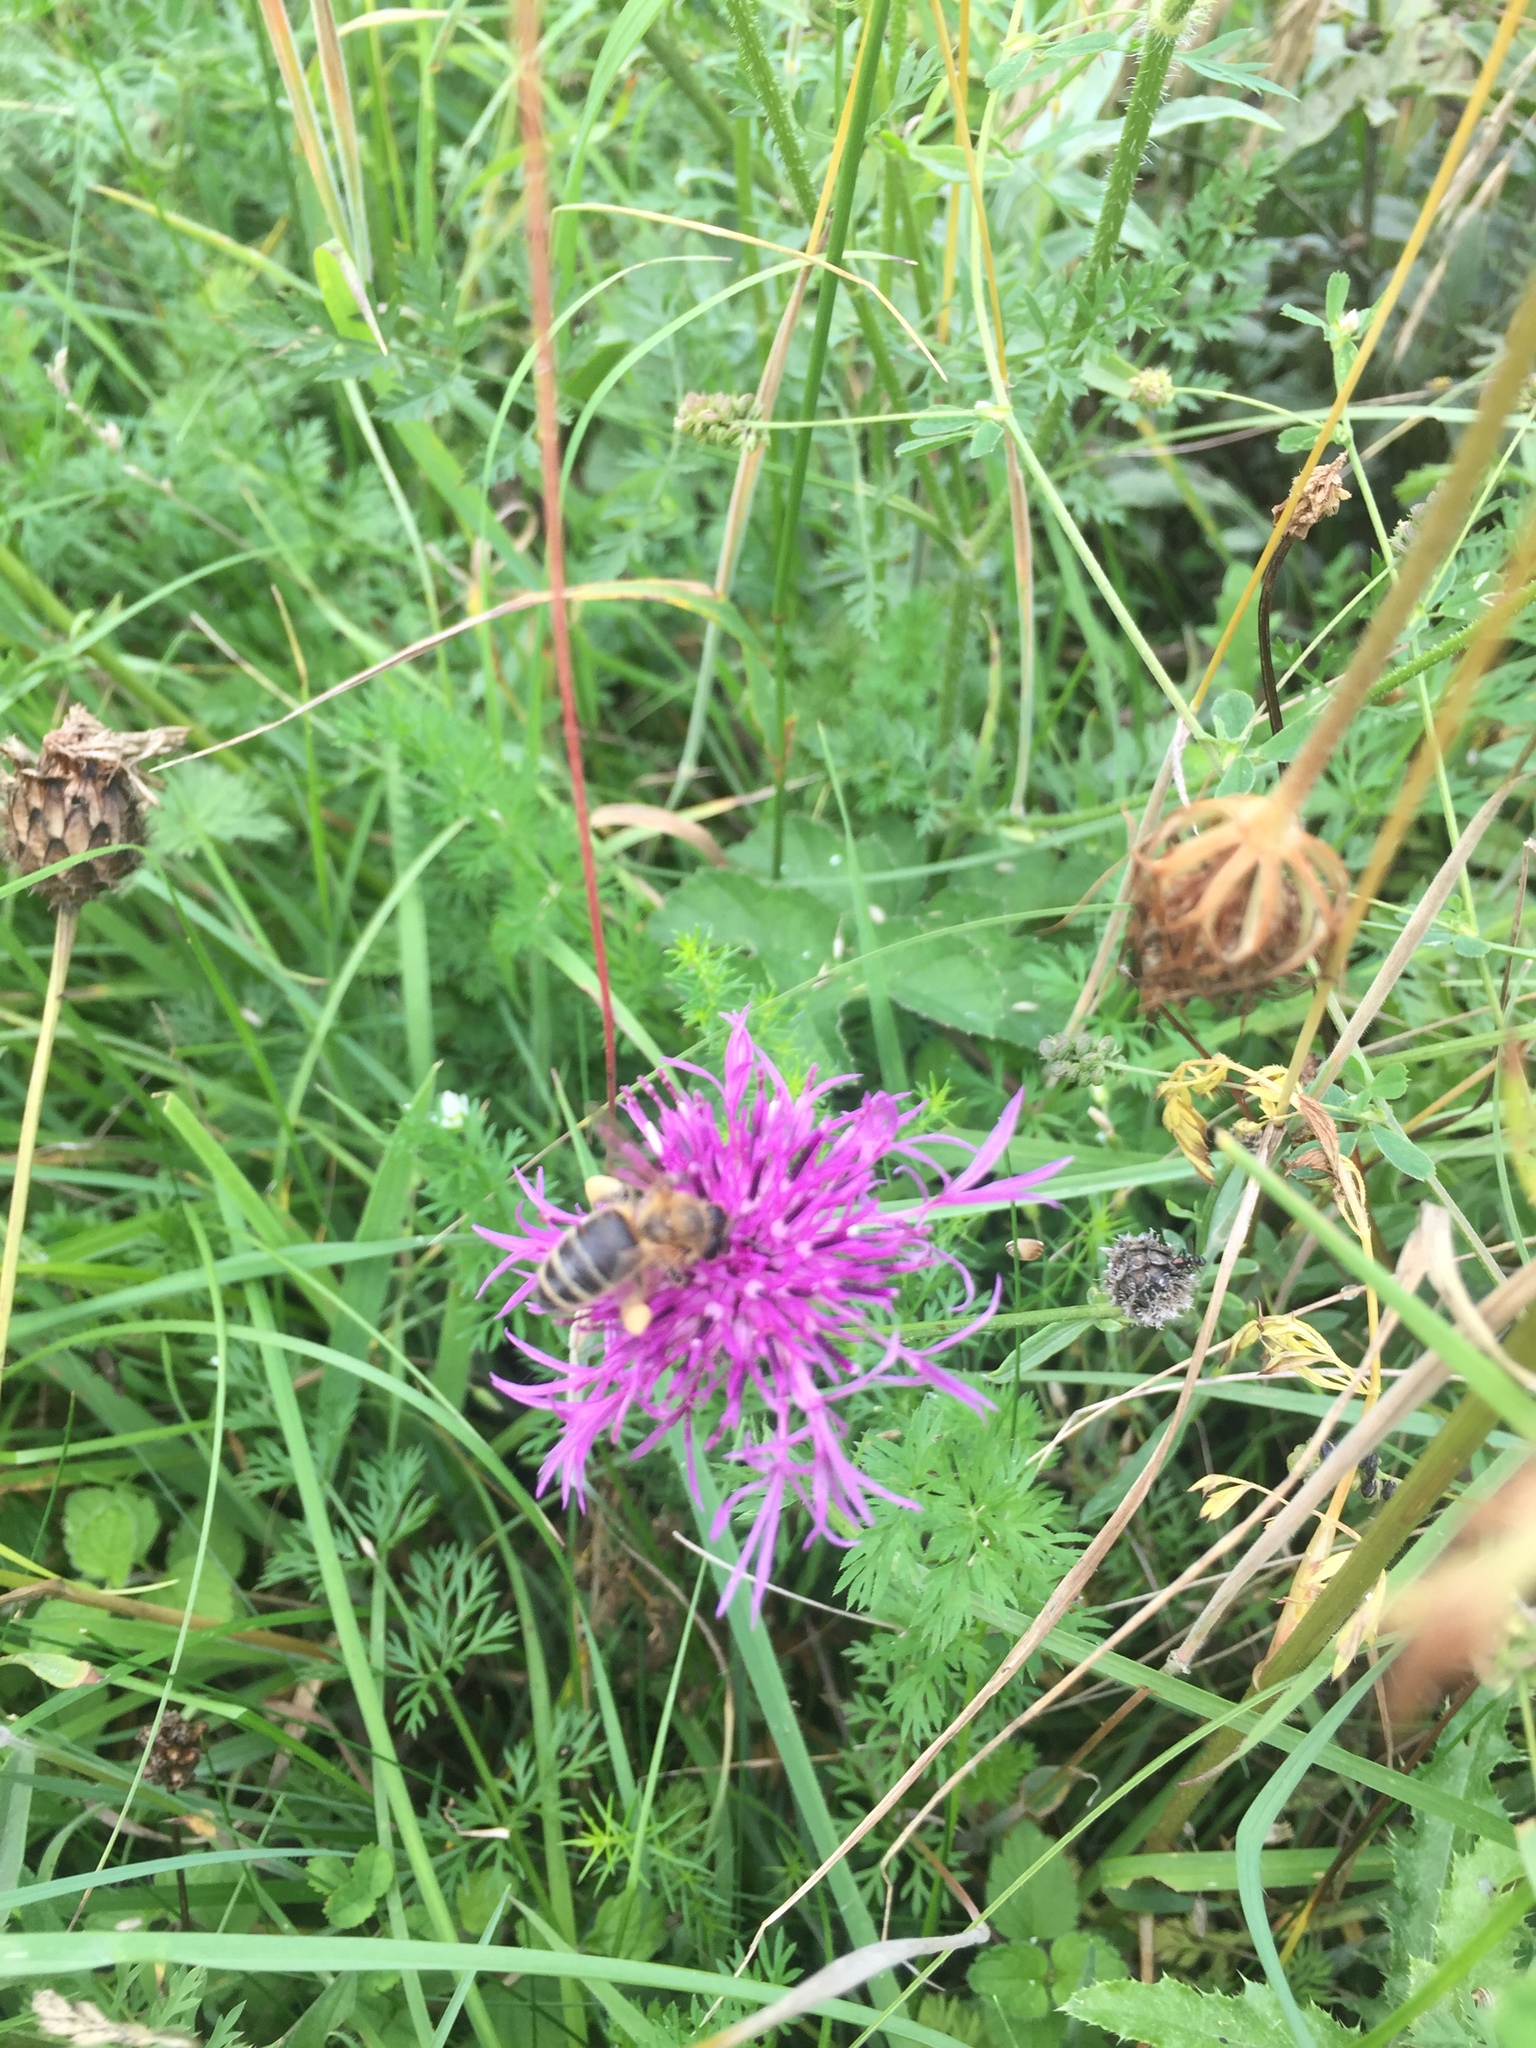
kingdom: Animalia
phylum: Arthropoda
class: Insecta
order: Hymenoptera
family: Apidae
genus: Apis
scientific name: Apis mellifera
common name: Honey bee
